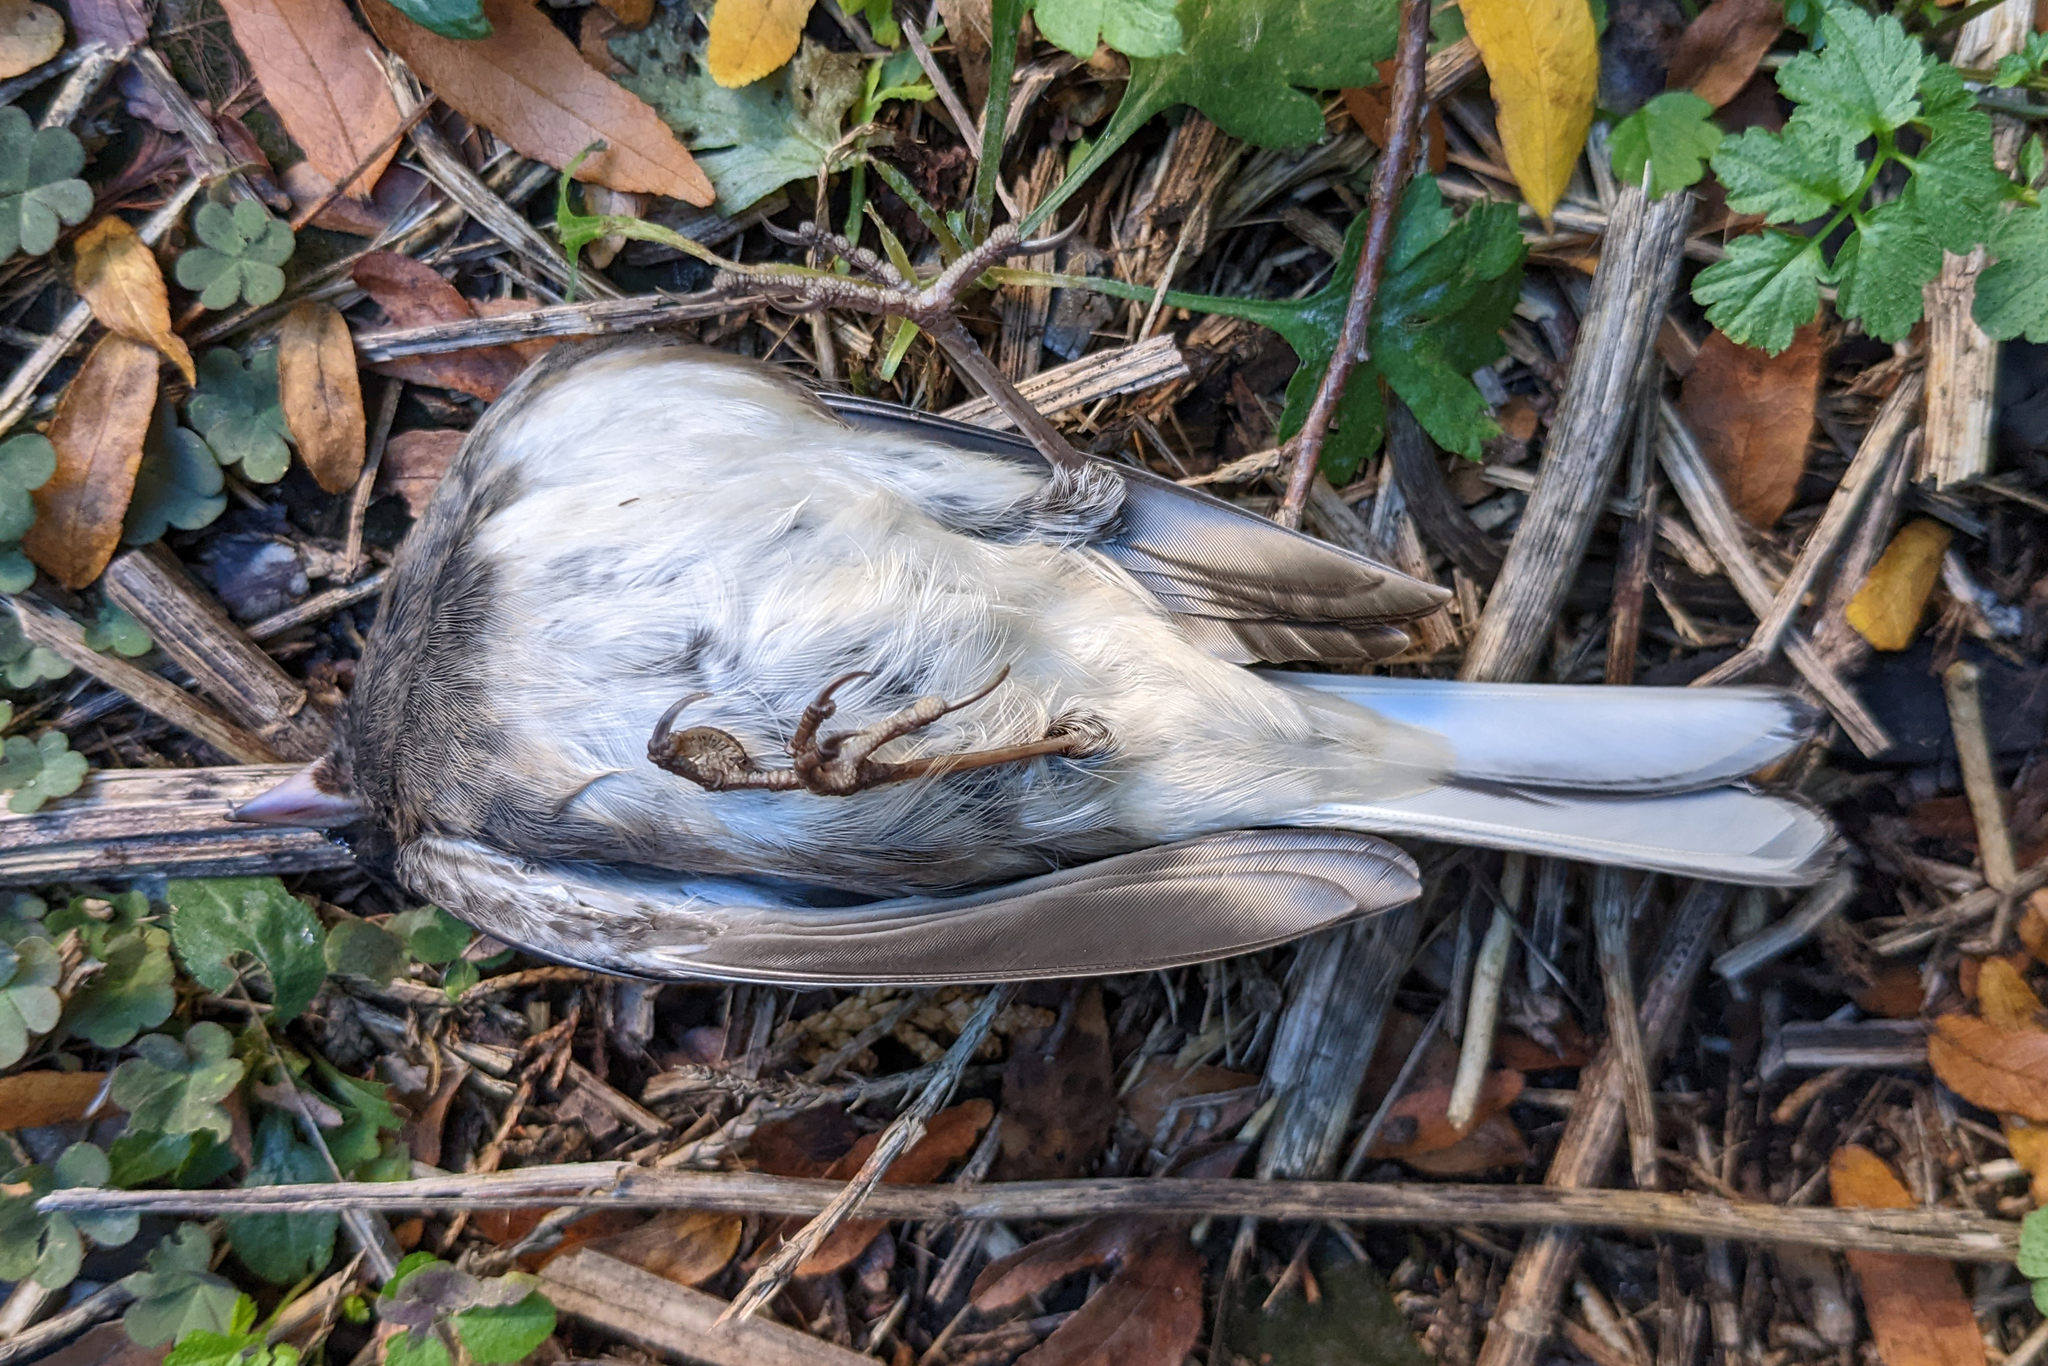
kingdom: Animalia
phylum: Chordata
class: Aves
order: Passeriformes
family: Passerellidae
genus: Junco
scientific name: Junco hyemalis
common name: Dark-eyed junco
